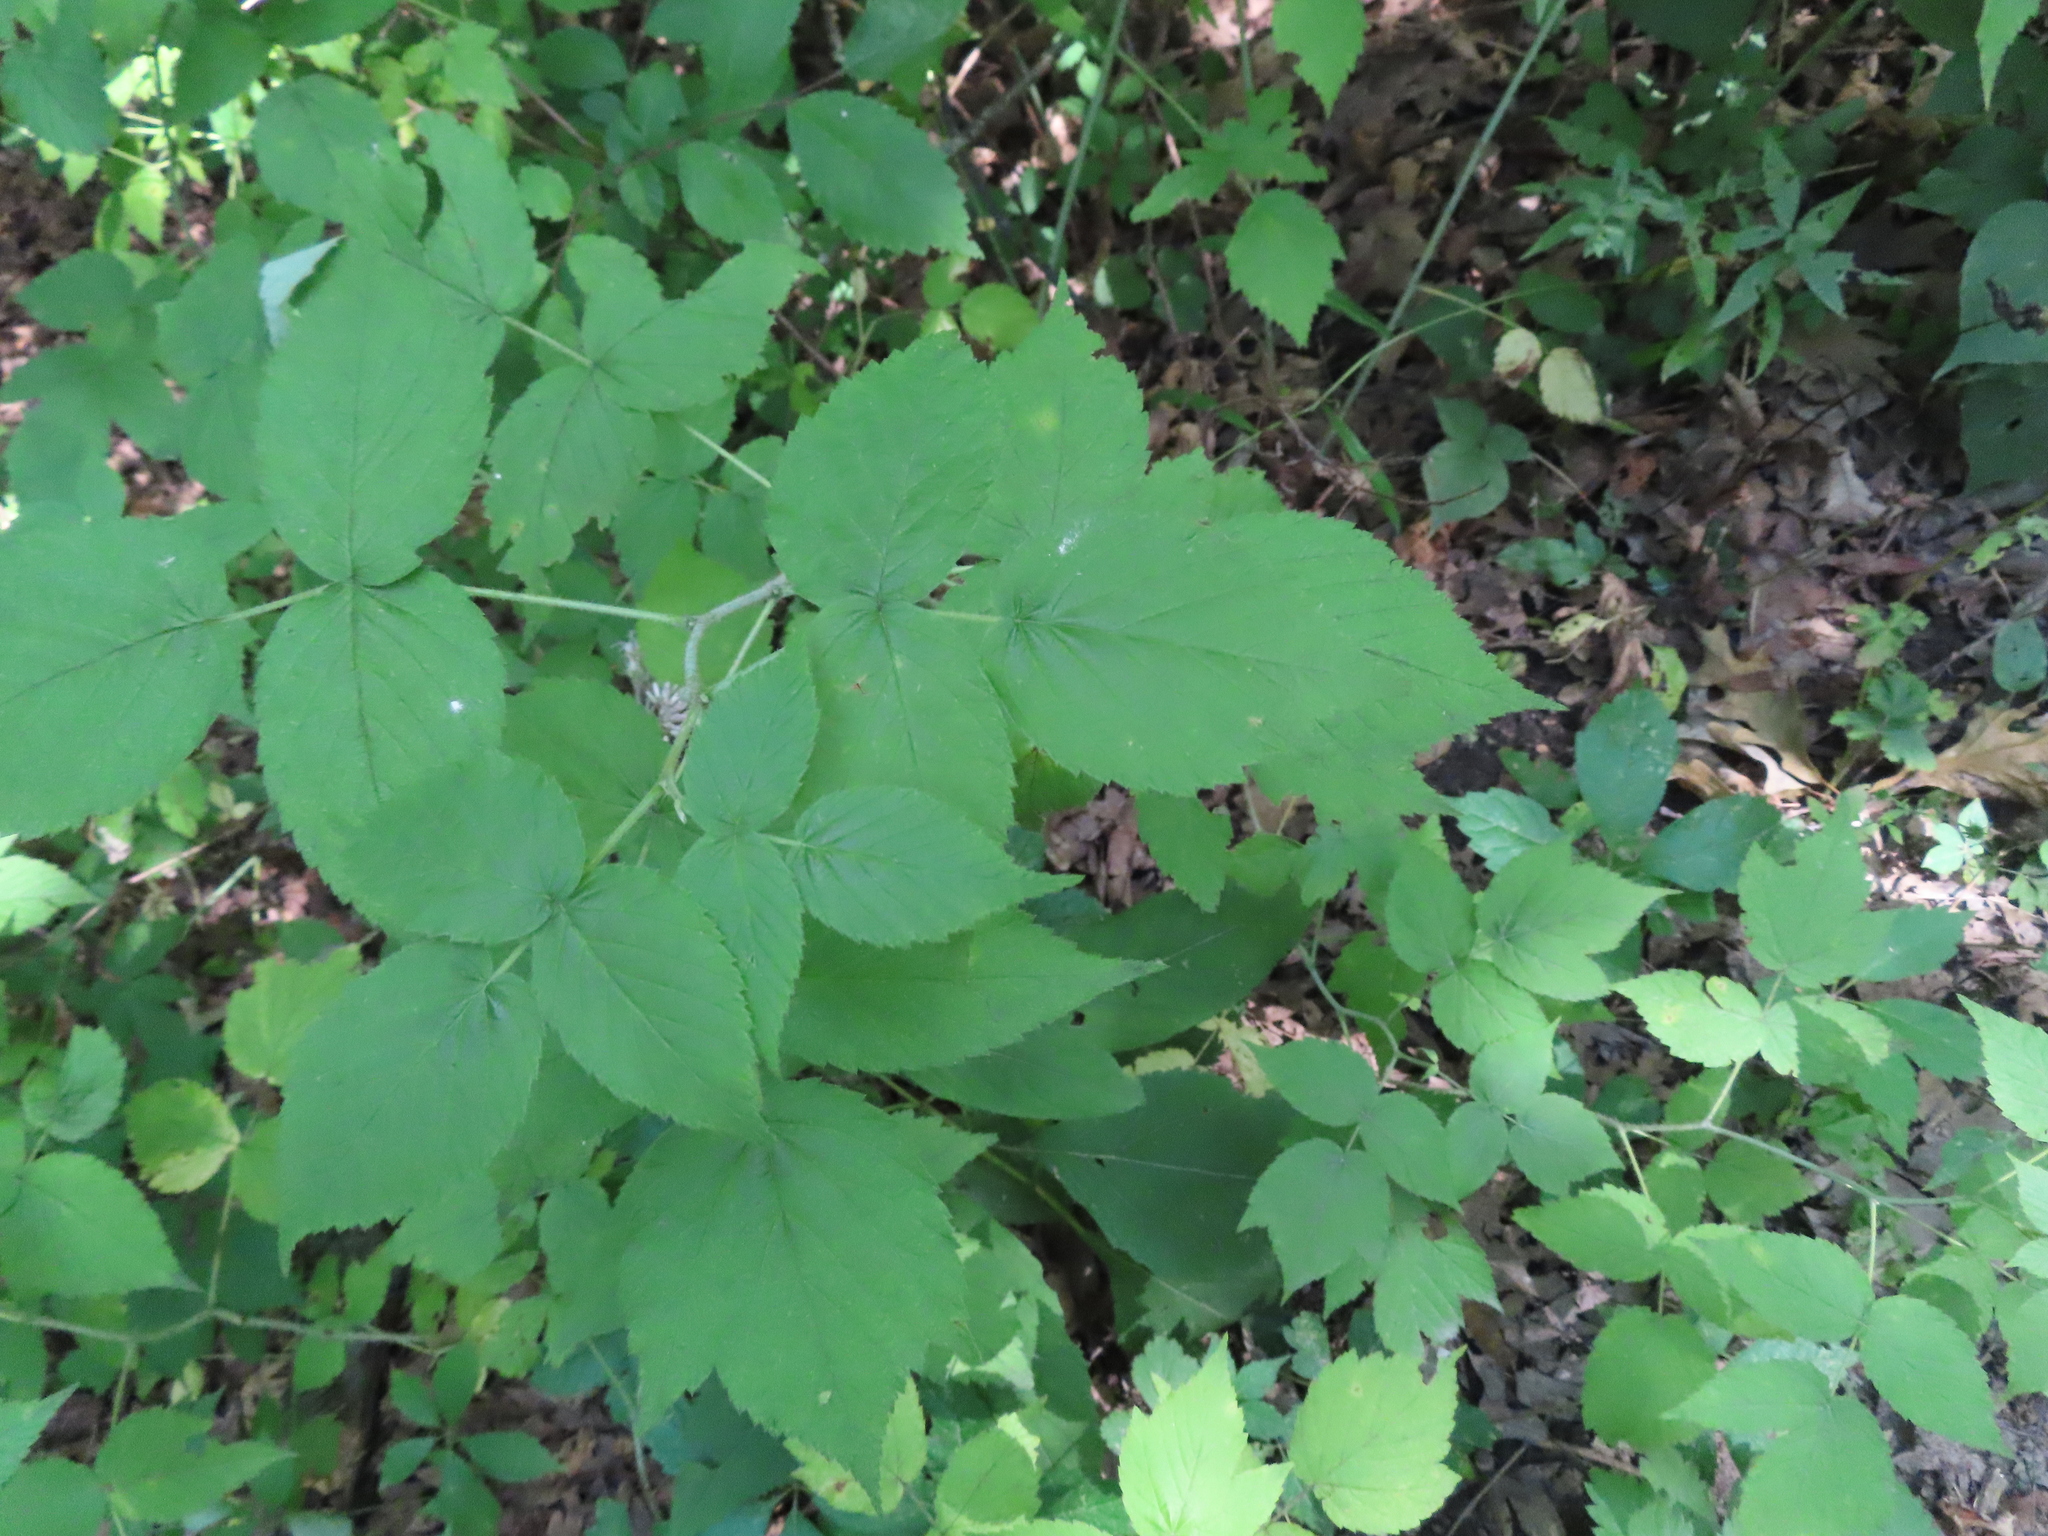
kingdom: Plantae
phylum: Tracheophyta
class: Magnoliopsida
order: Rosales
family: Rosaceae
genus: Rubus
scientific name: Rubus idaeus
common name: Raspberry
